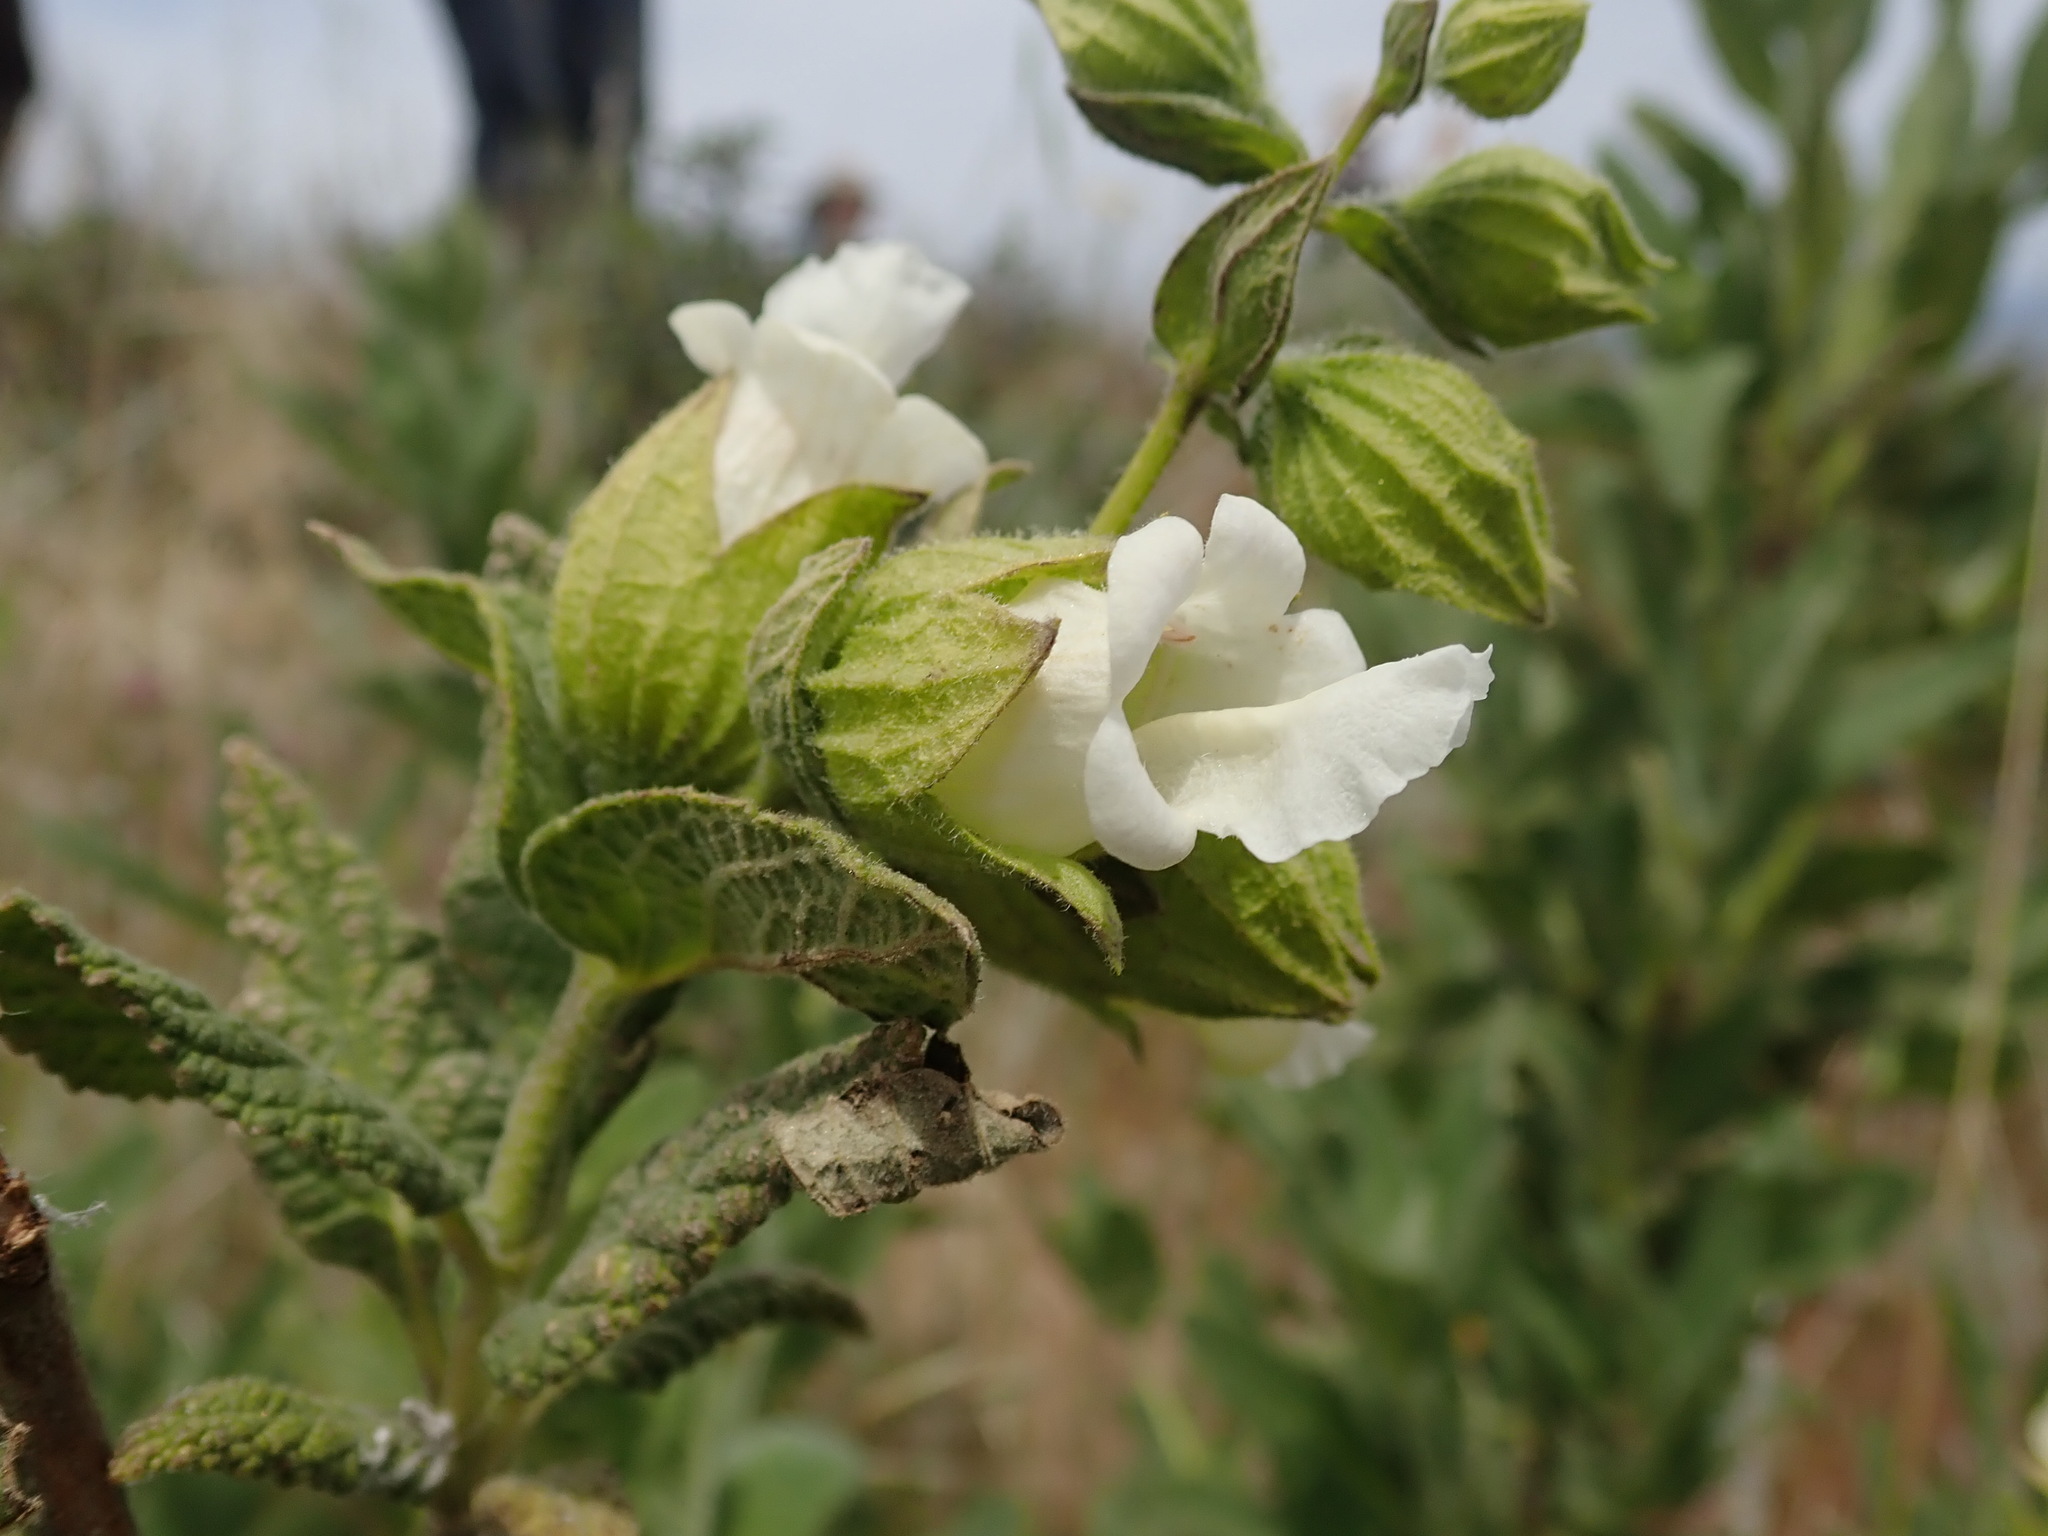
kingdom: Plantae
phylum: Tracheophyta
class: Magnoliopsida
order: Lamiales
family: Lamiaceae
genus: Lepechinia
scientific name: Lepechinia calycina
